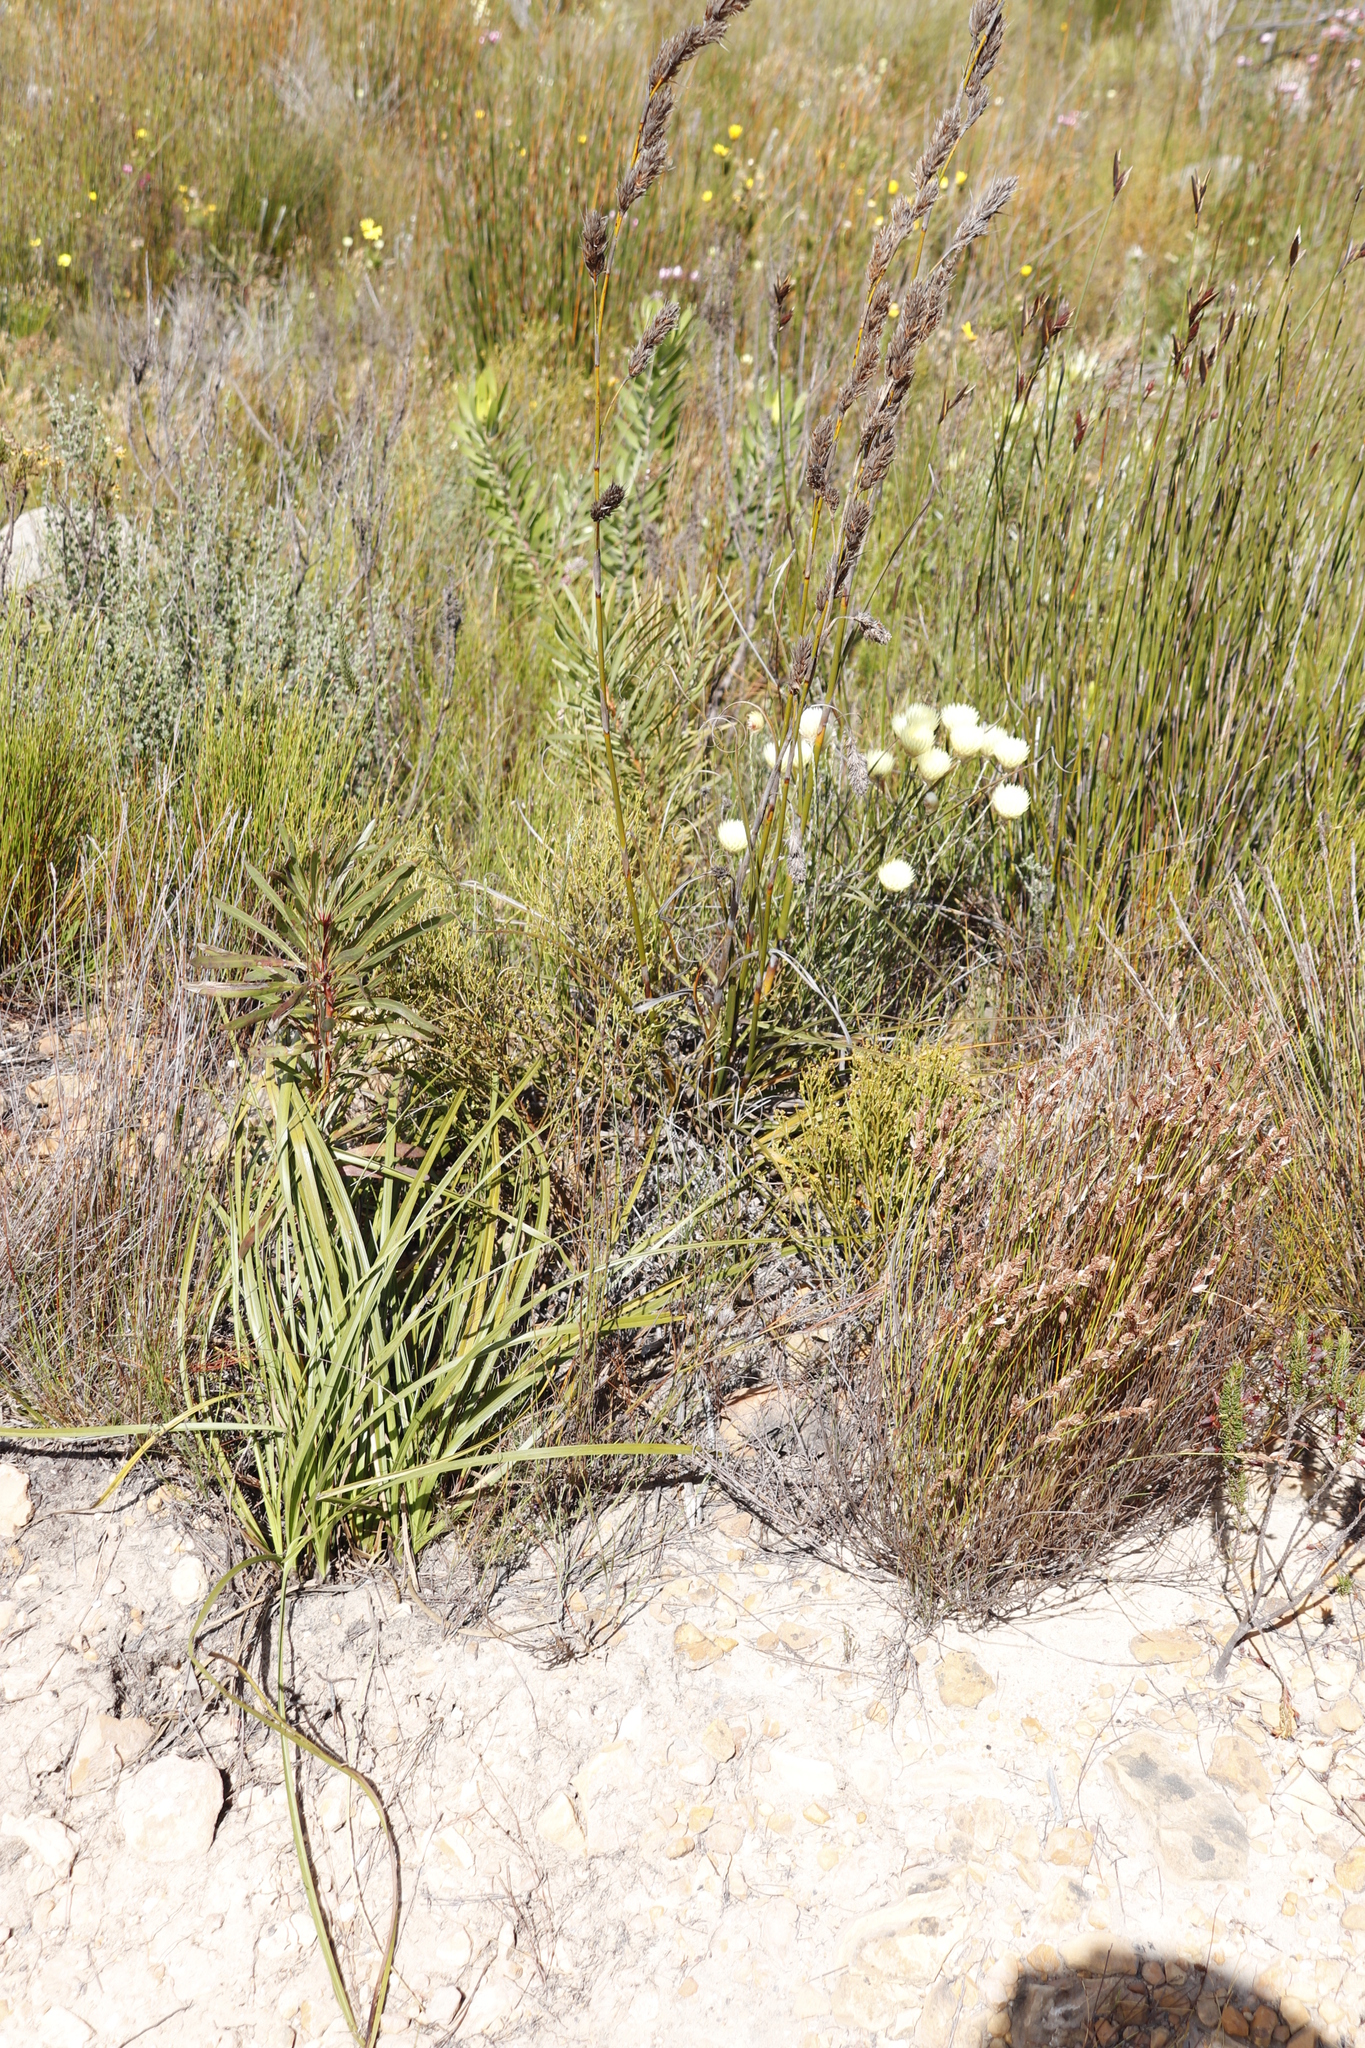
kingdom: Plantae
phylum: Tracheophyta
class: Magnoliopsida
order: Proteales
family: Proteaceae
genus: Leucadendron
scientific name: Leucadendron laureolum
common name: Golden sunshinebush
